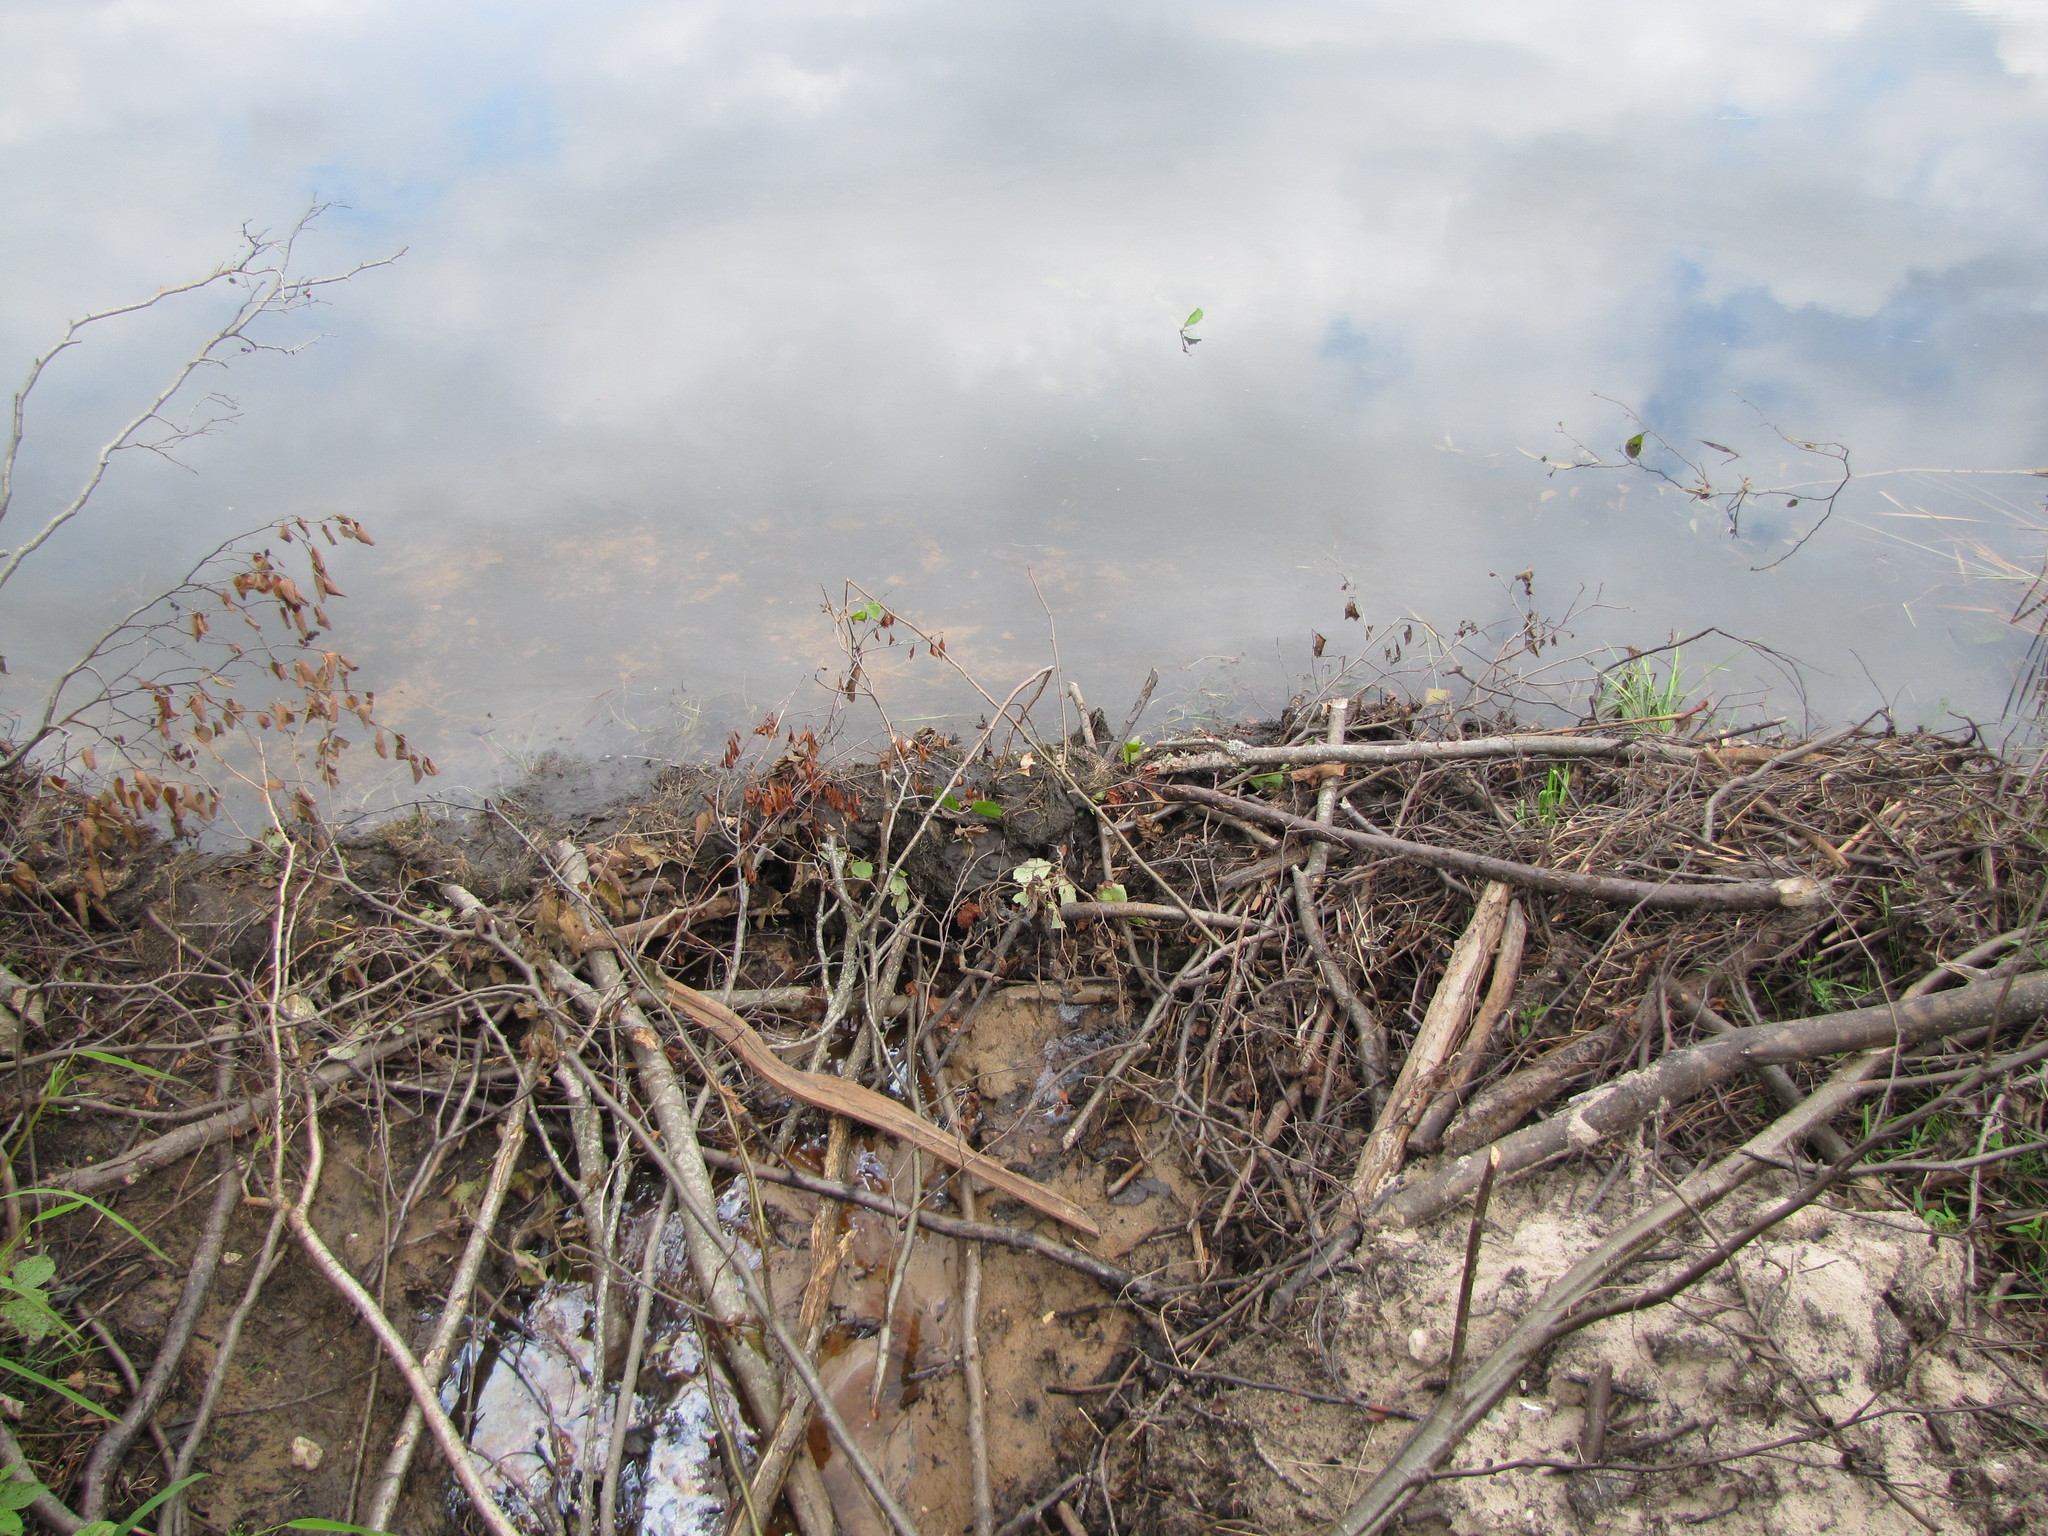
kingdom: Animalia
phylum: Chordata
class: Mammalia
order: Rodentia
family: Castoridae
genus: Castor
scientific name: Castor canadensis
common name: American beaver
